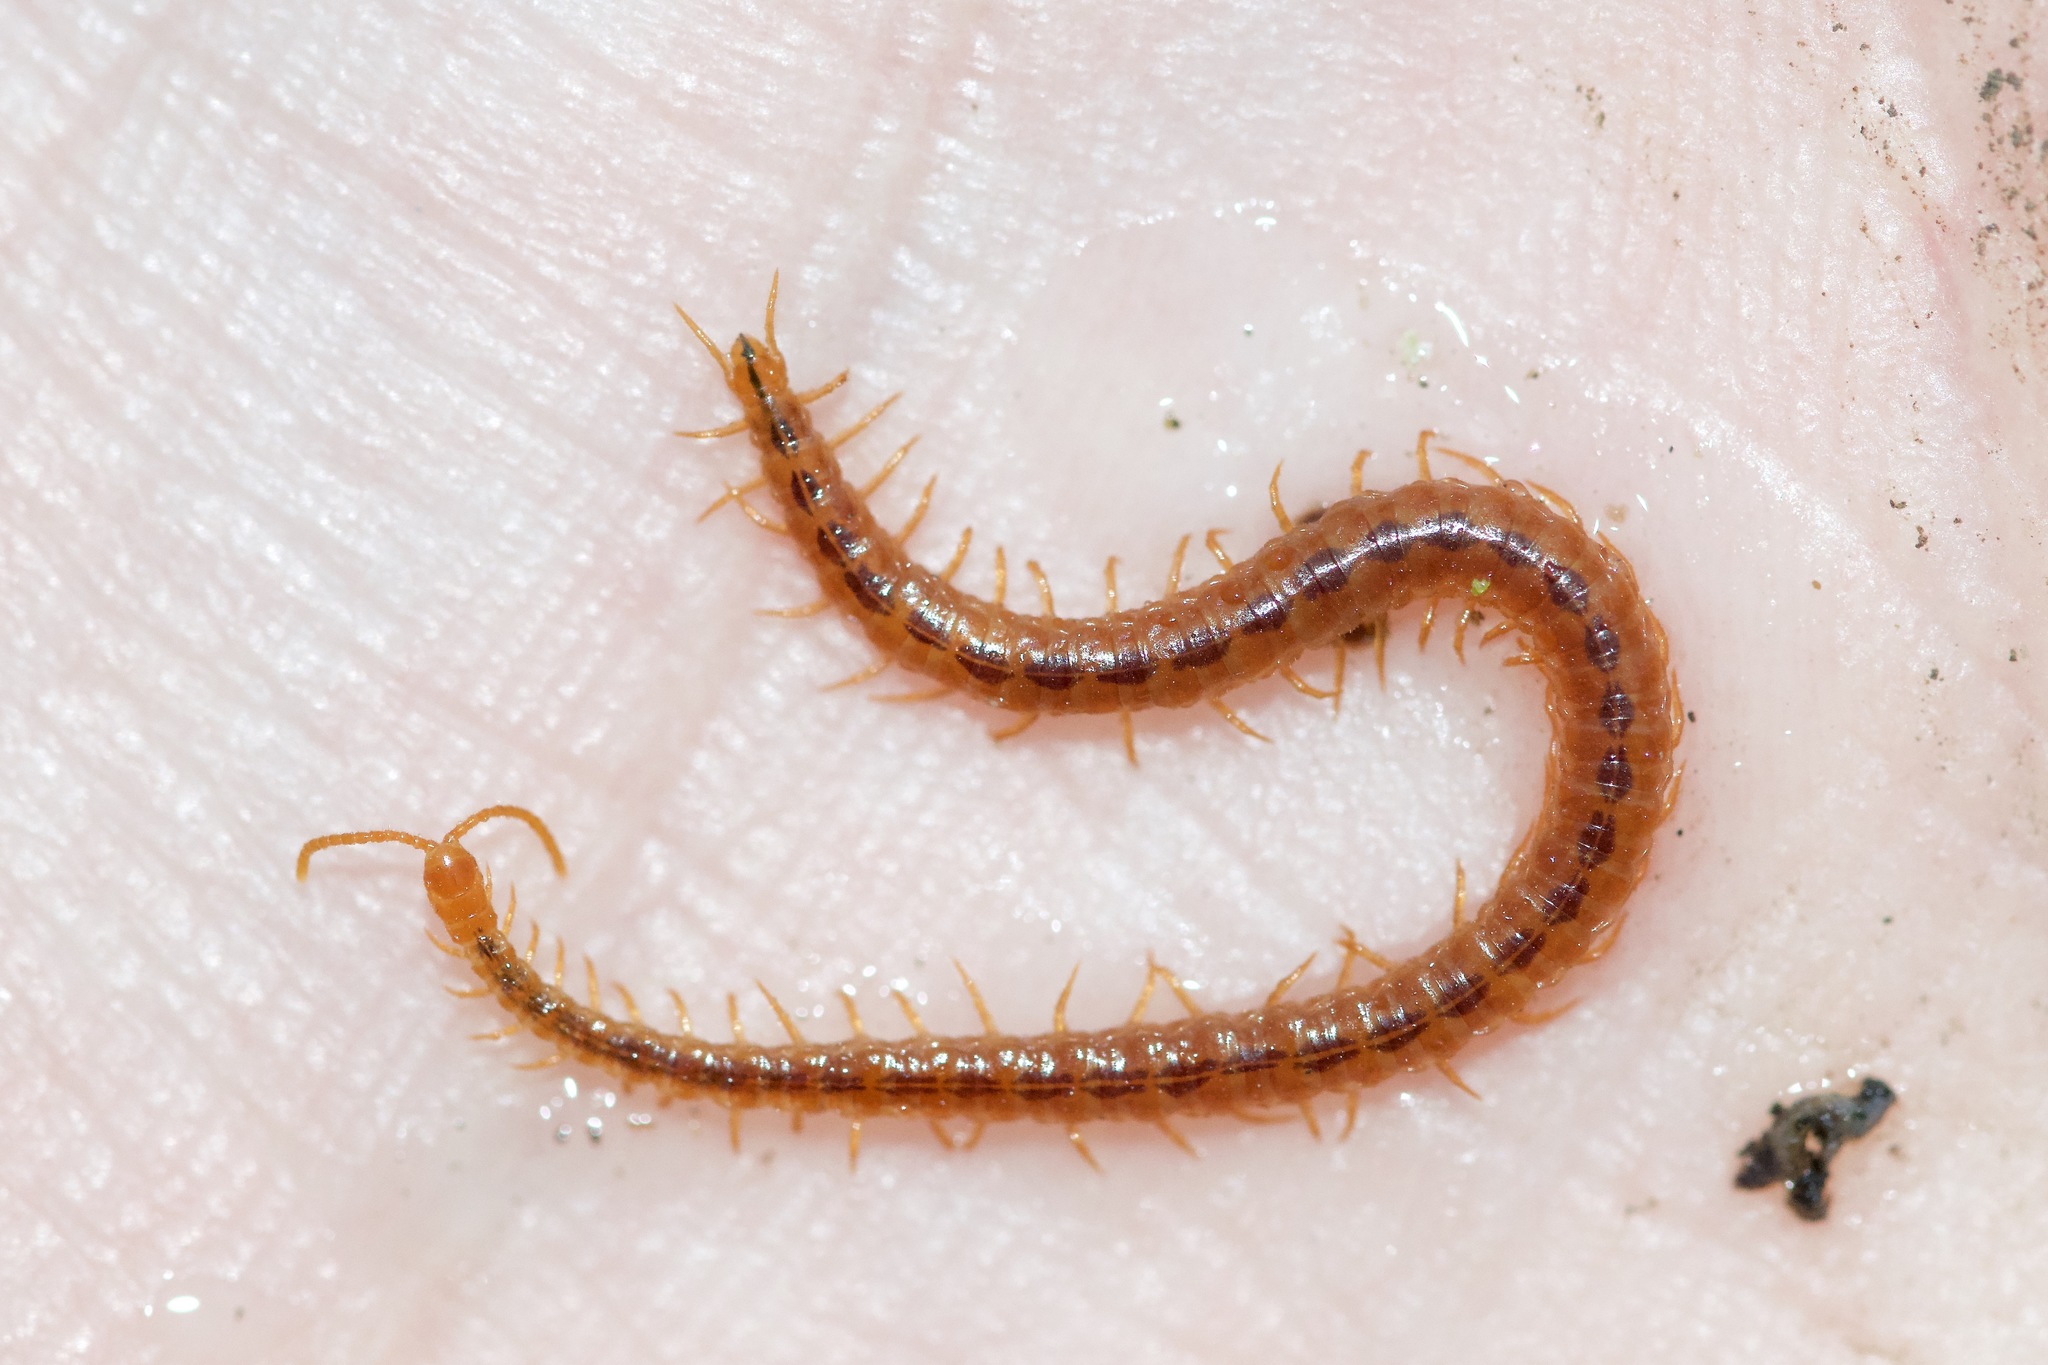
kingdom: Animalia
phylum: Arthropoda
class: Chilopoda
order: Geophilomorpha
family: Linotaeniidae
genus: Strigamia
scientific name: Strigamia branneri
